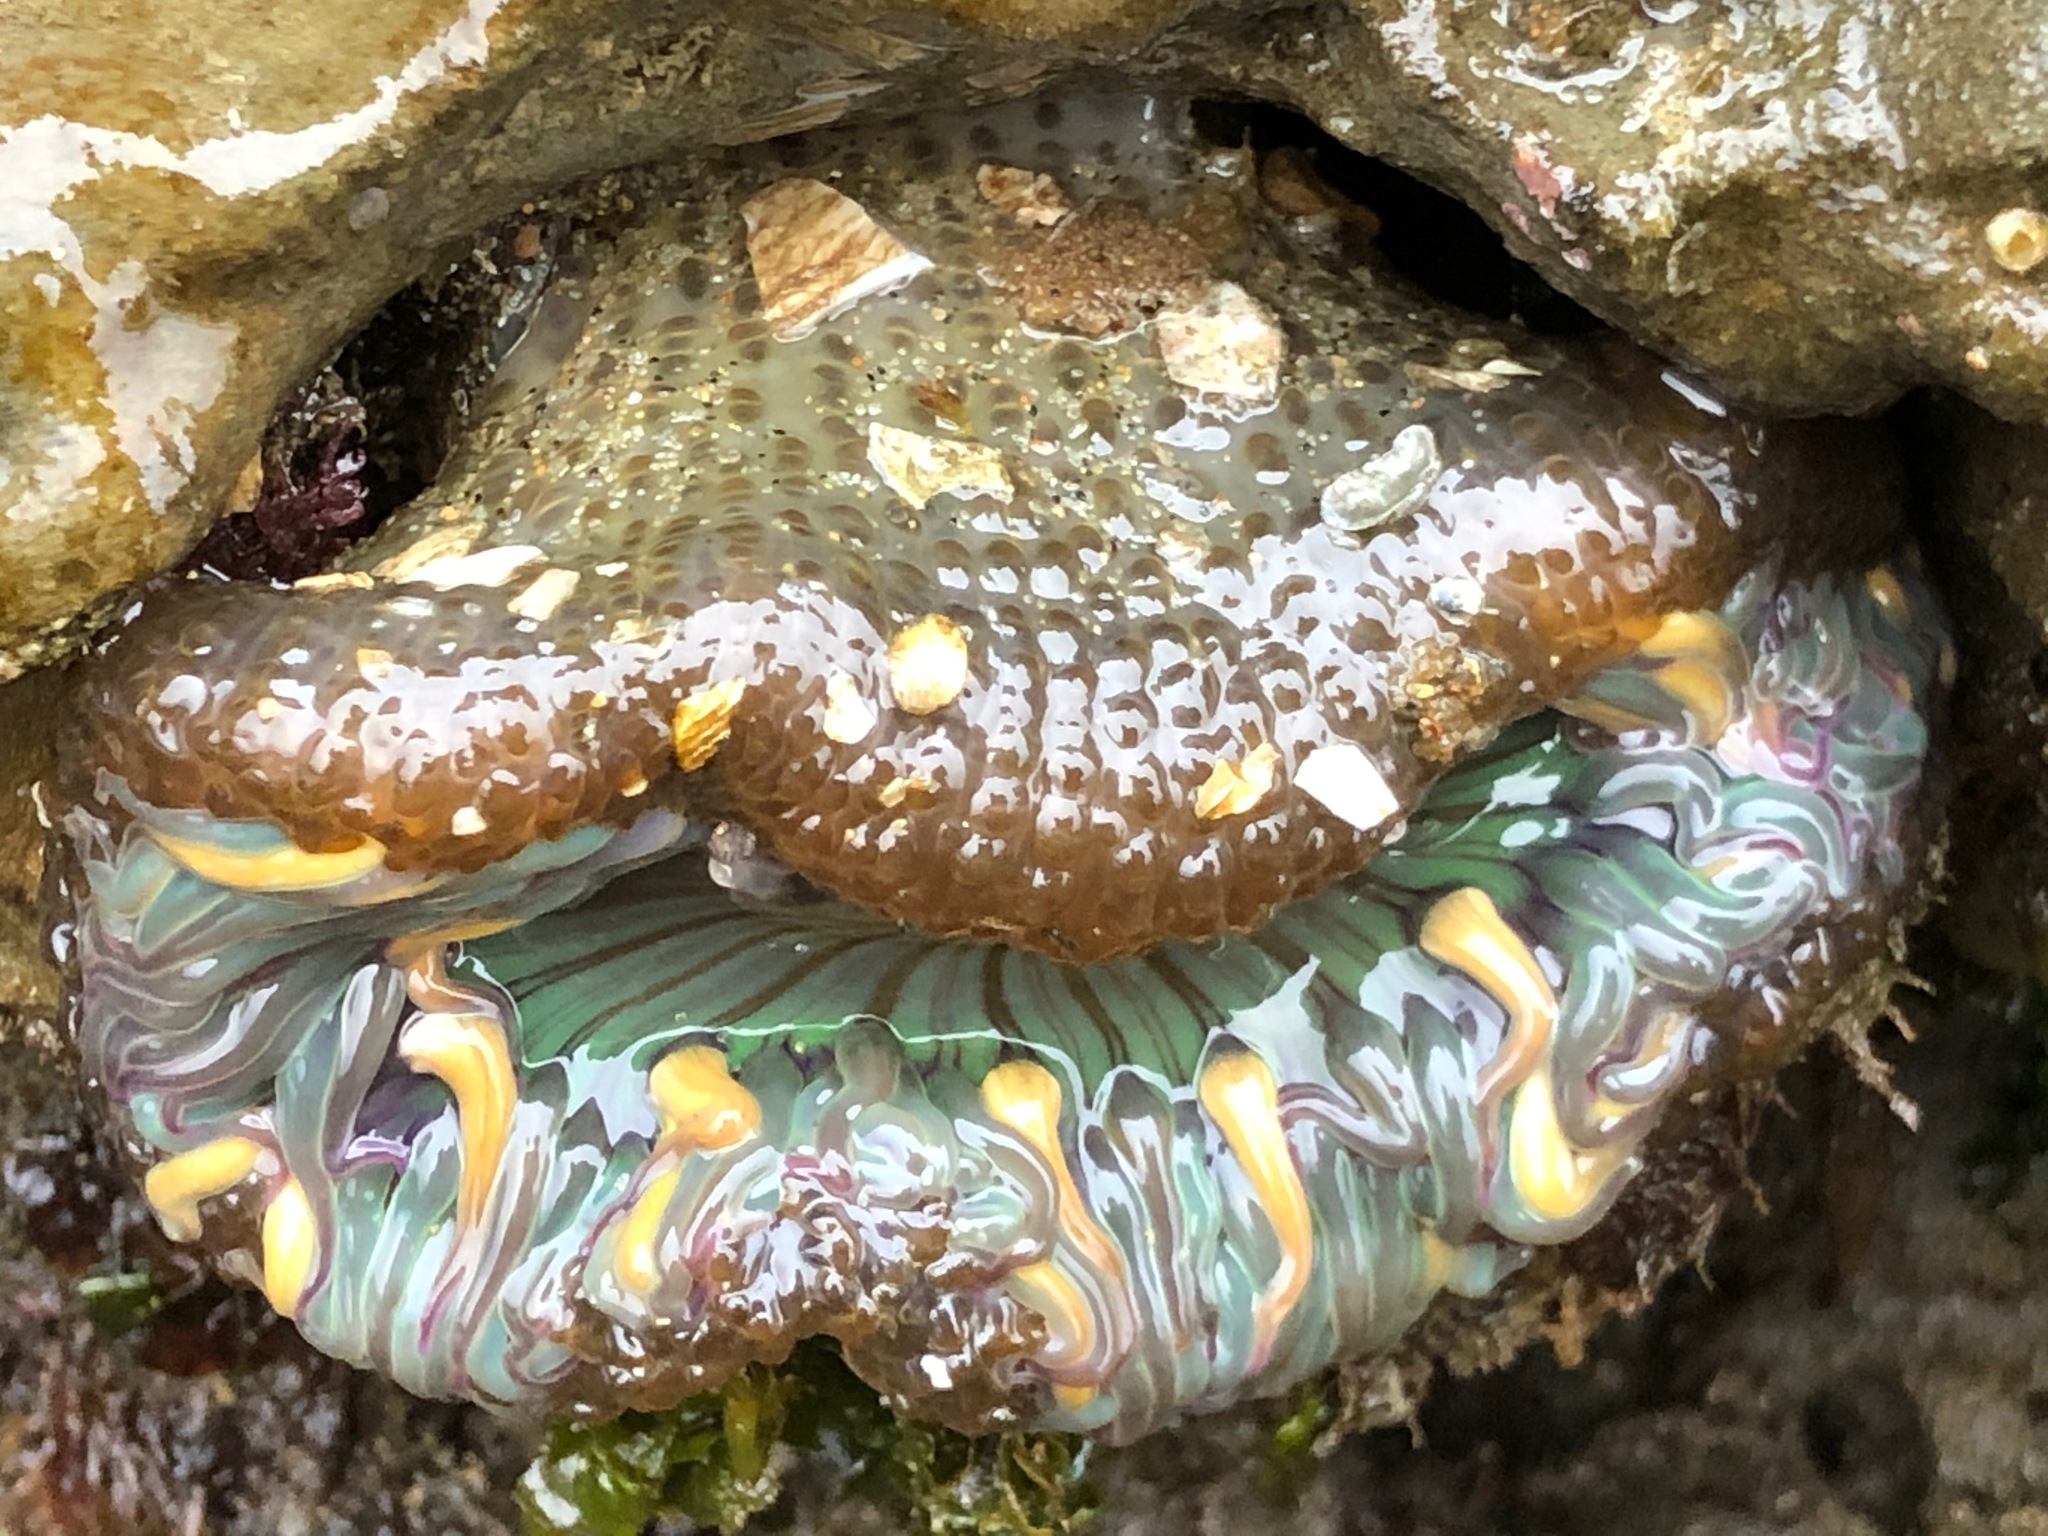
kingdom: Animalia
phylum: Cnidaria
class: Anthozoa
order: Actiniaria
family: Actiniidae
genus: Anthopleura
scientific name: Anthopleura sola
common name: Sun anemone
